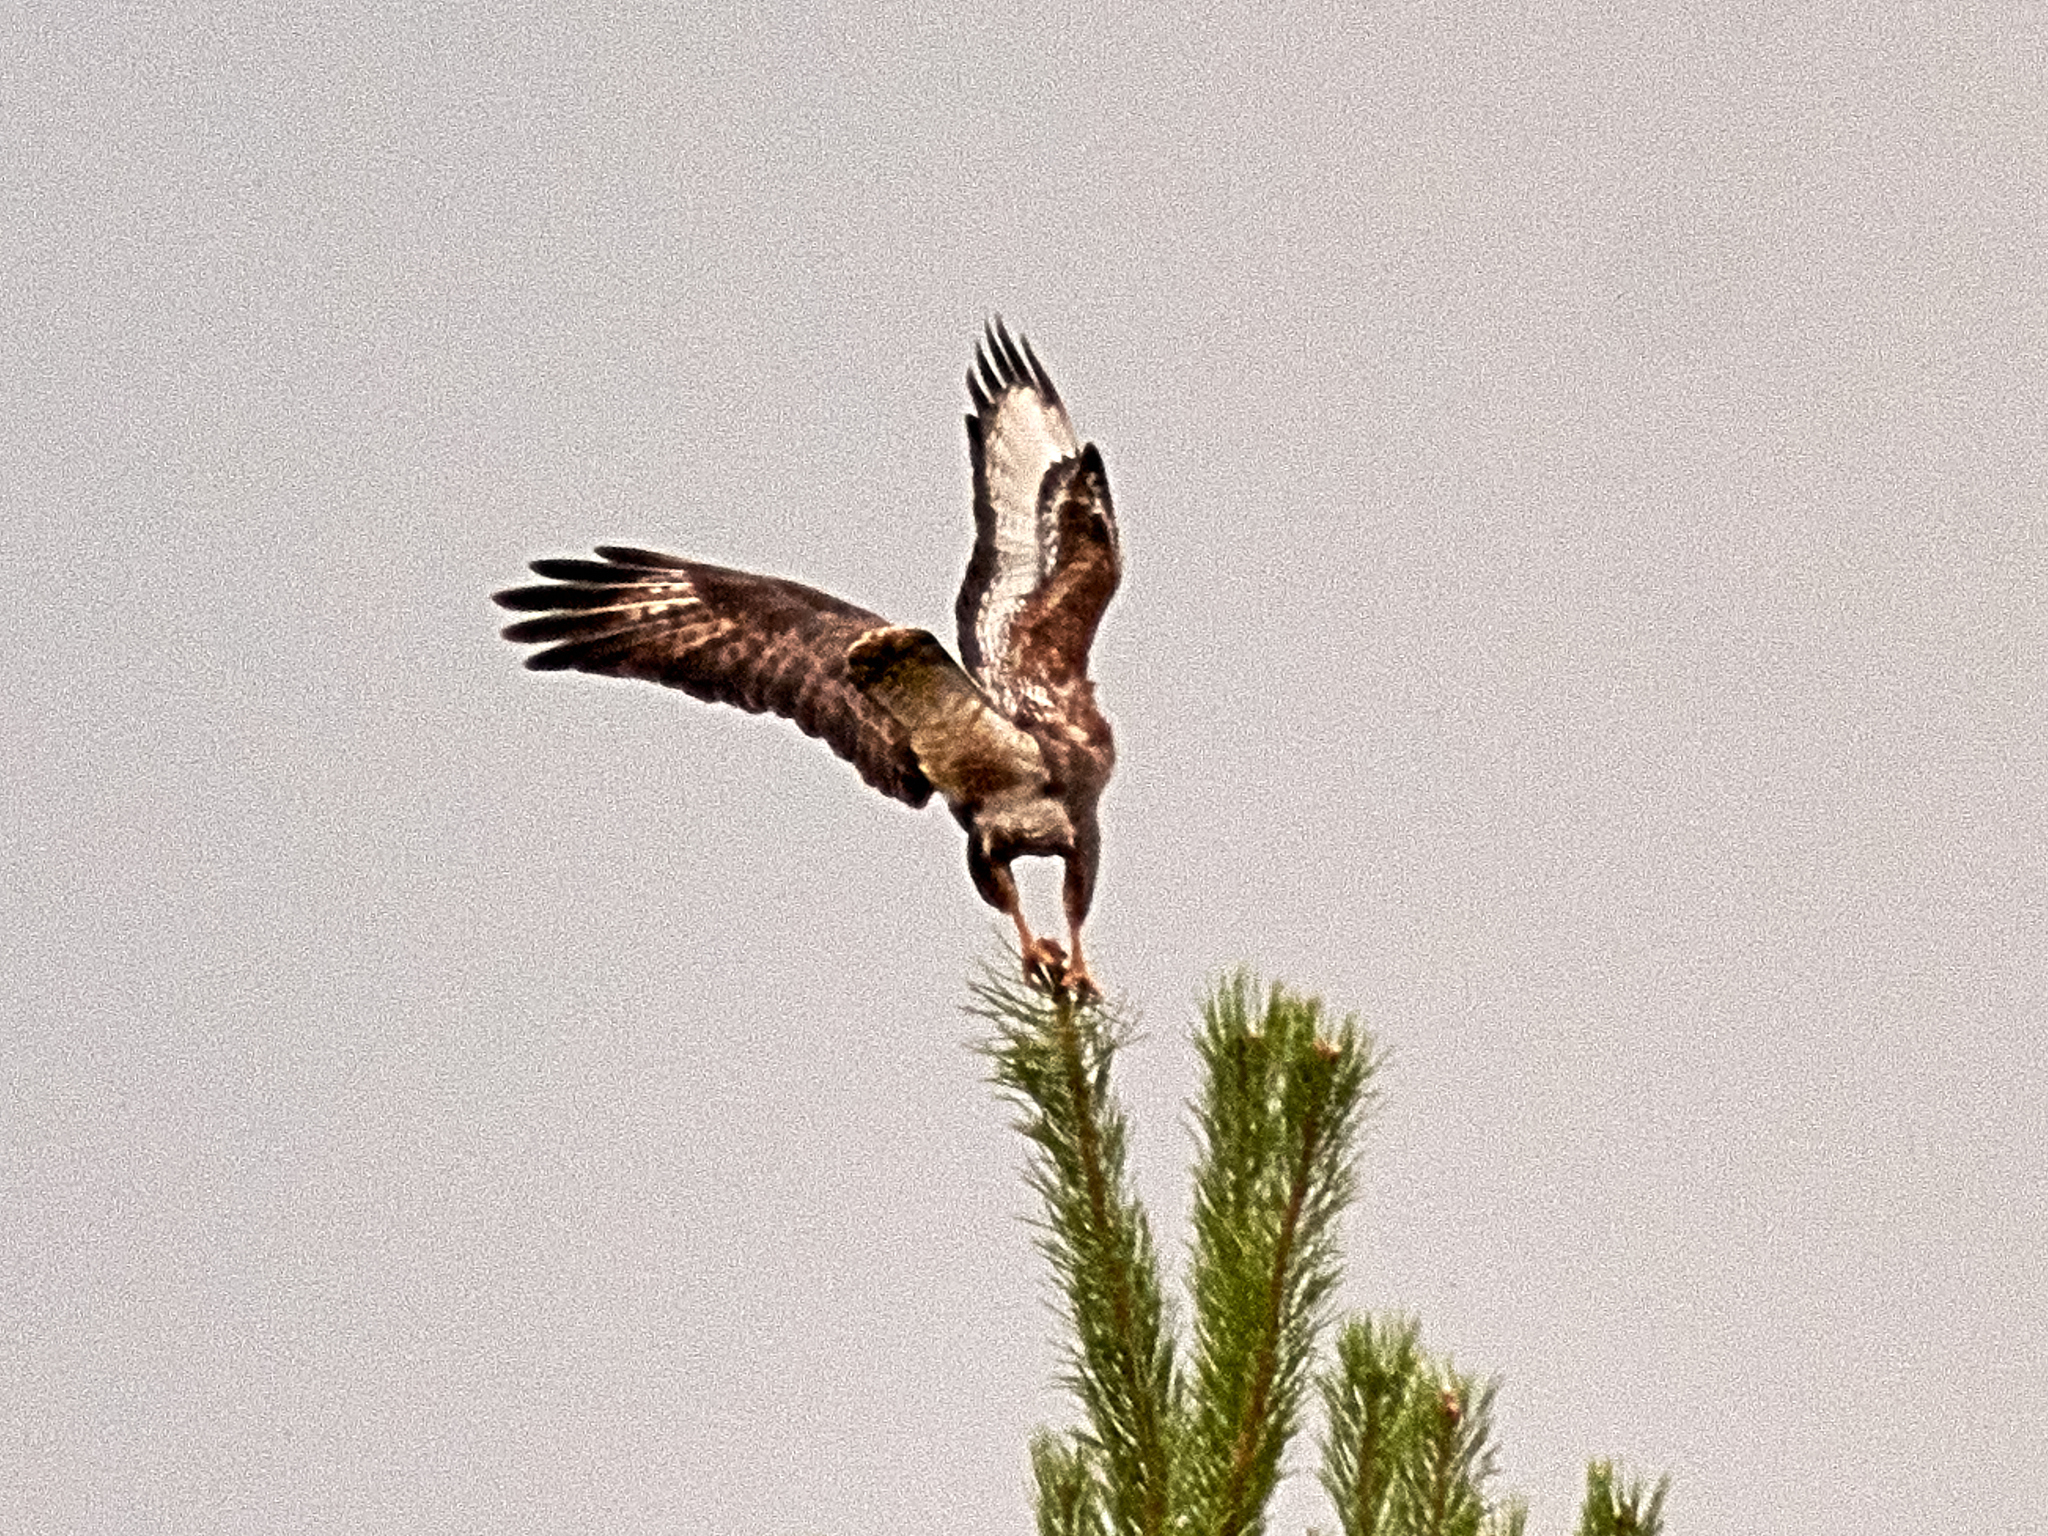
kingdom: Animalia
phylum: Chordata
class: Aves
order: Accipitriformes
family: Accipitridae
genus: Buteo
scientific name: Buteo buteo
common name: Common buzzard
